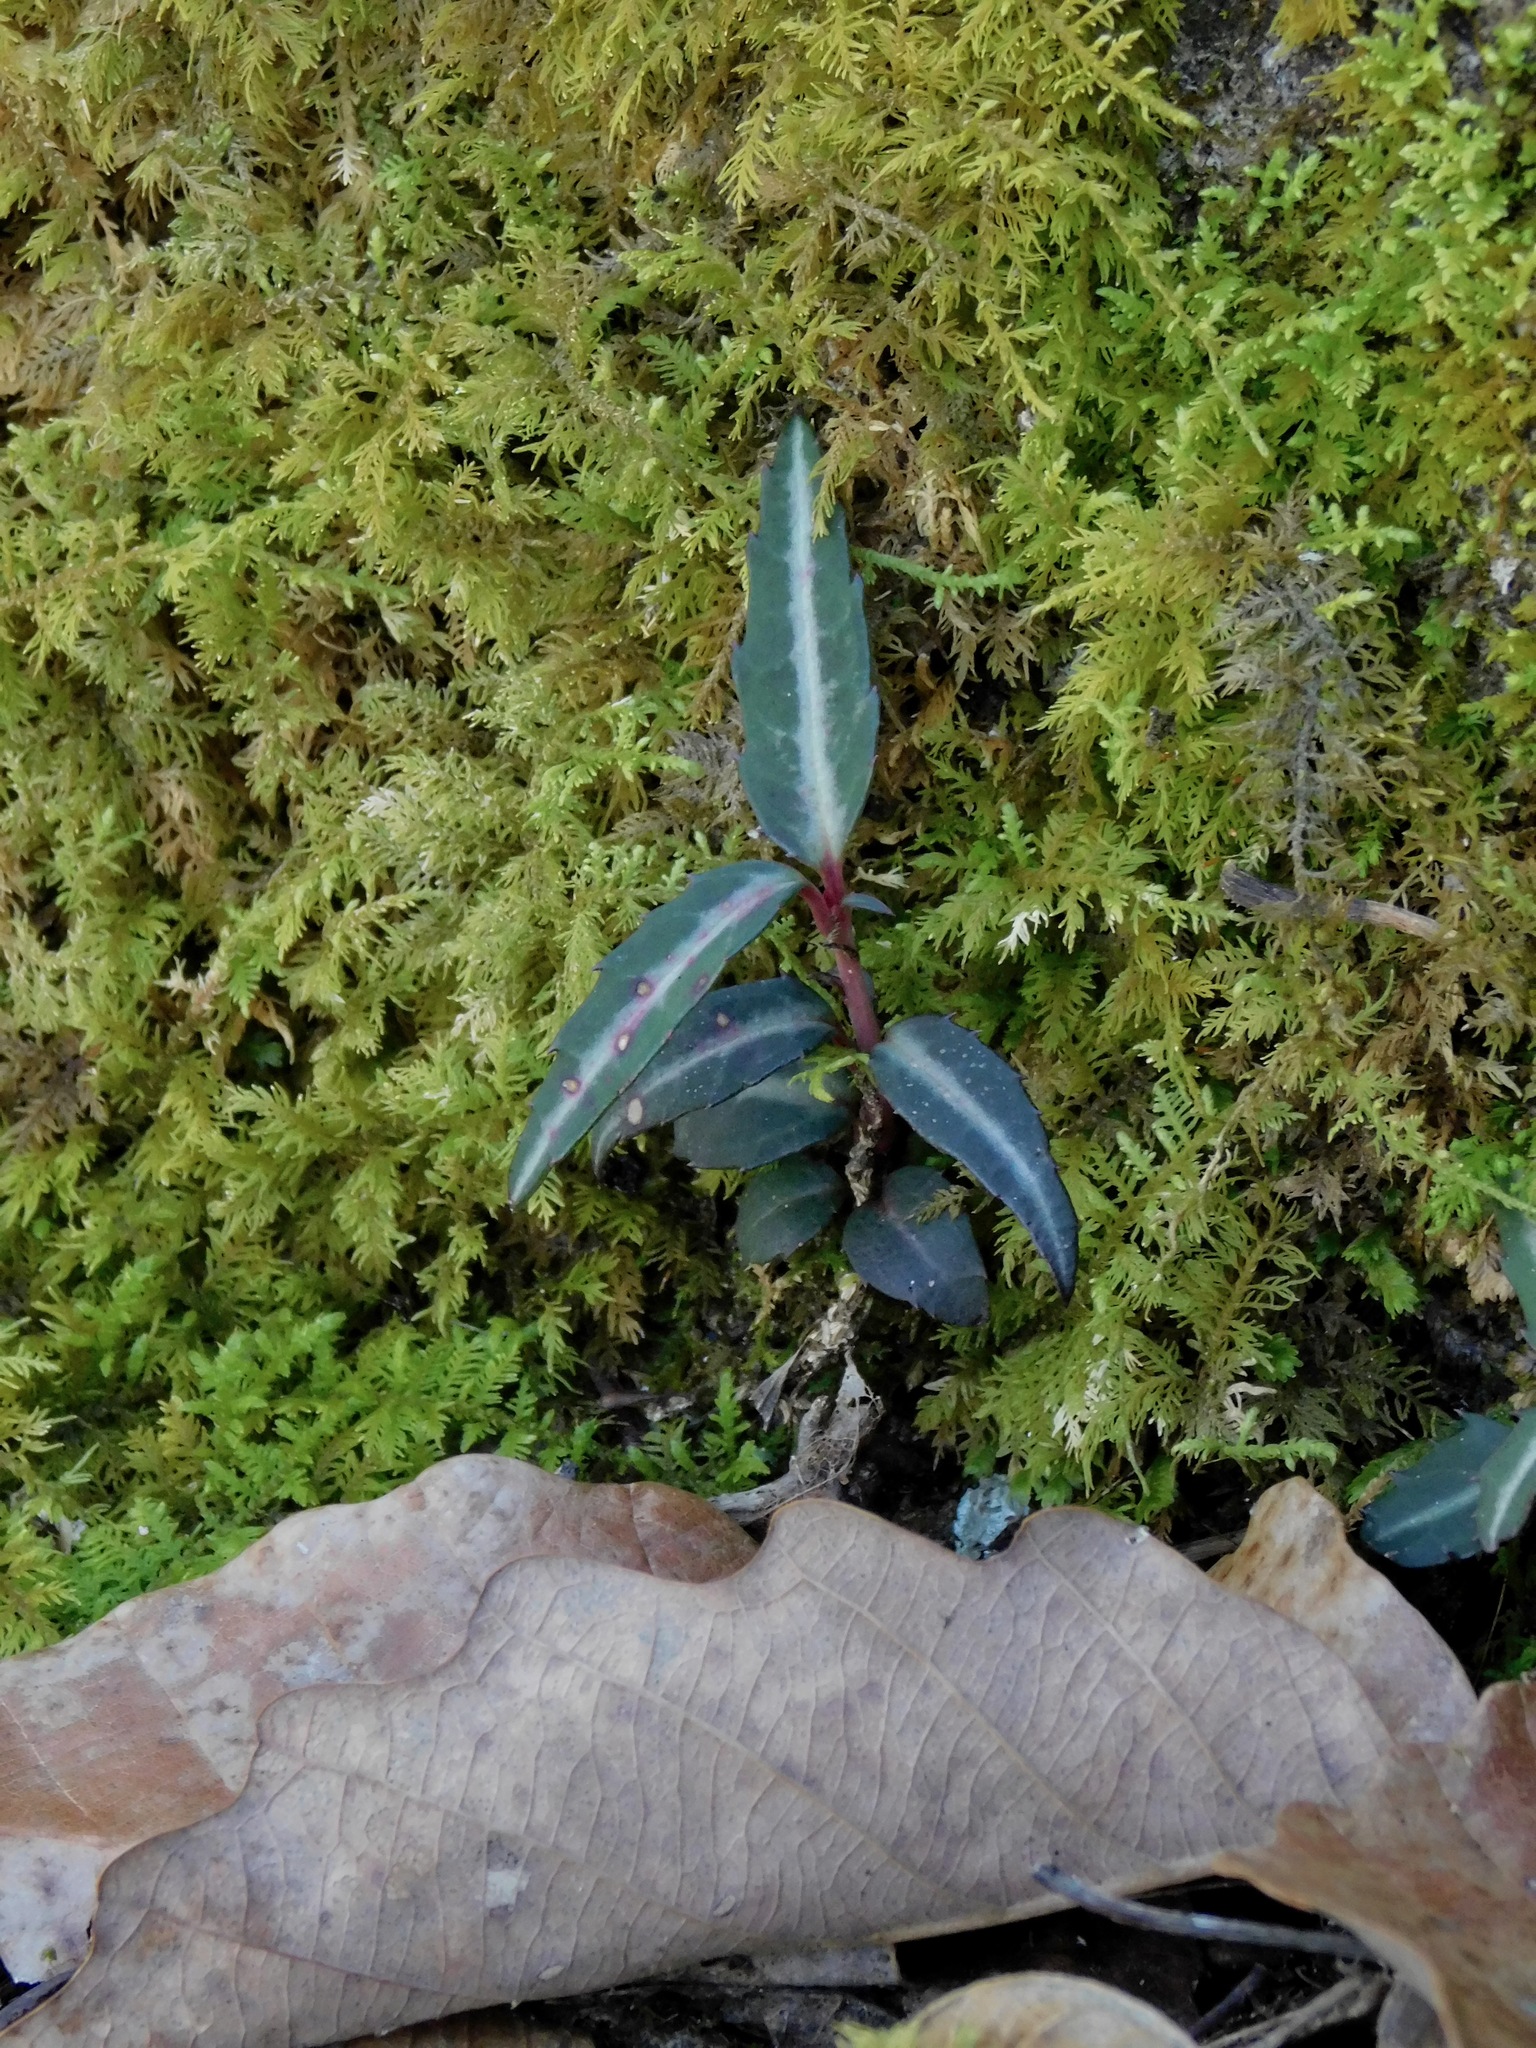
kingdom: Plantae
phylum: Tracheophyta
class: Magnoliopsida
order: Ericales
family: Ericaceae
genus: Chimaphila
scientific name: Chimaphila maculata
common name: Spotted pipsissewa
